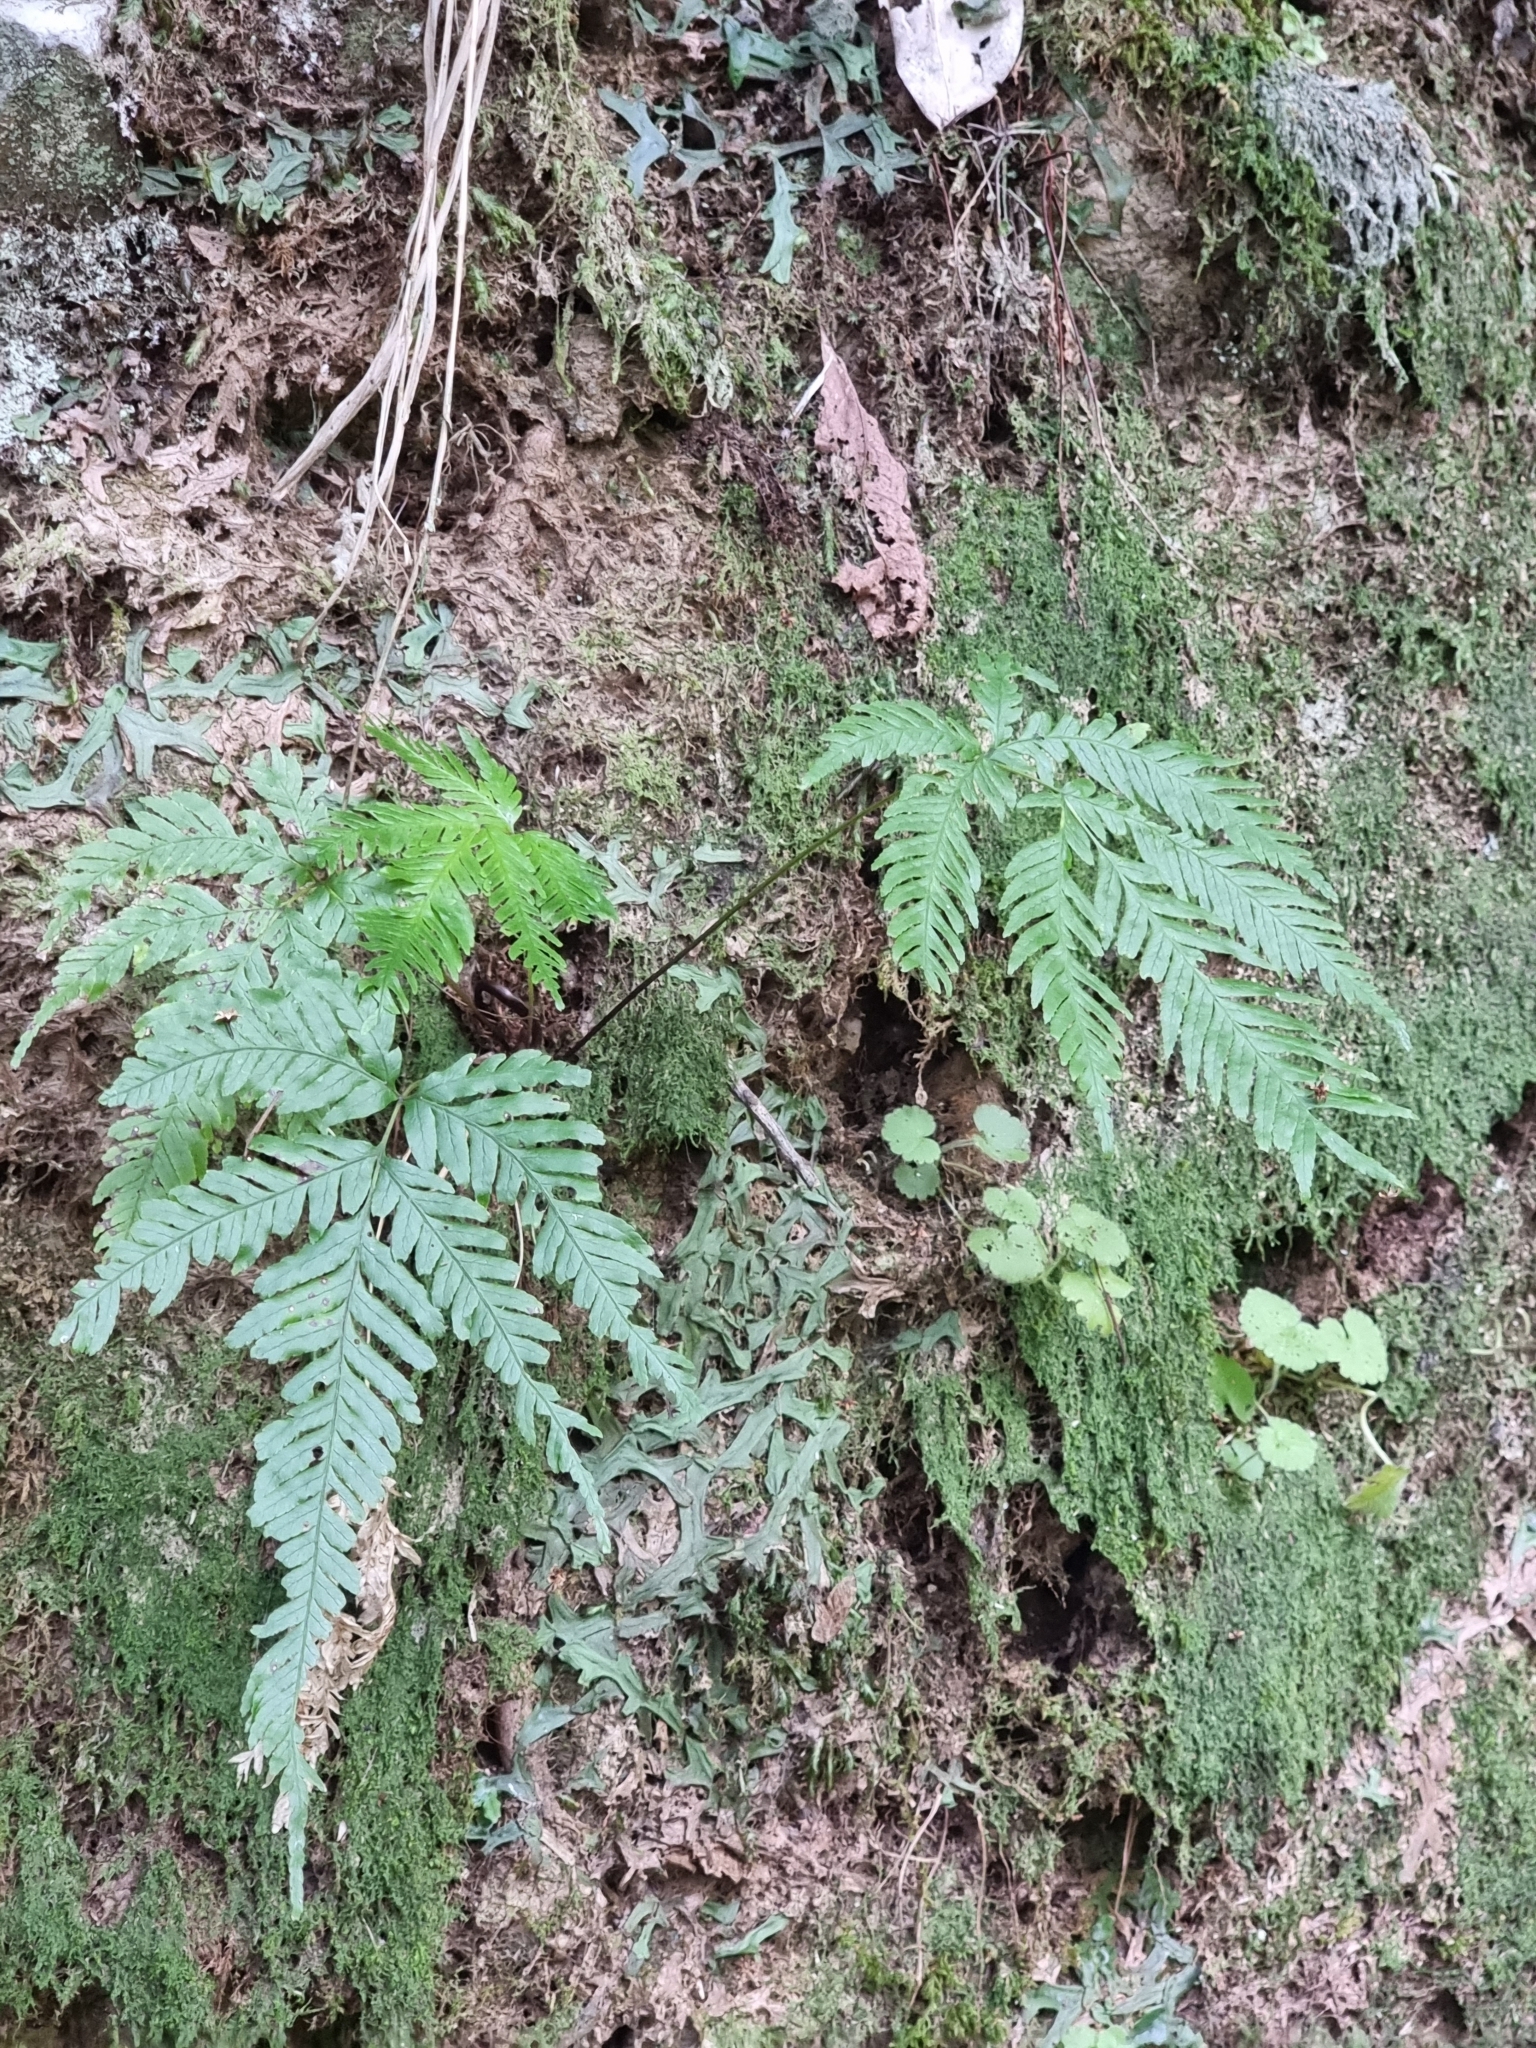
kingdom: Plantae
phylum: Tracheophyta
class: Polypodiopsida
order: Polypodiales
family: Pteridaceae
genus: Pteris
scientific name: Pteris incompleta
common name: Laurisilva brake
